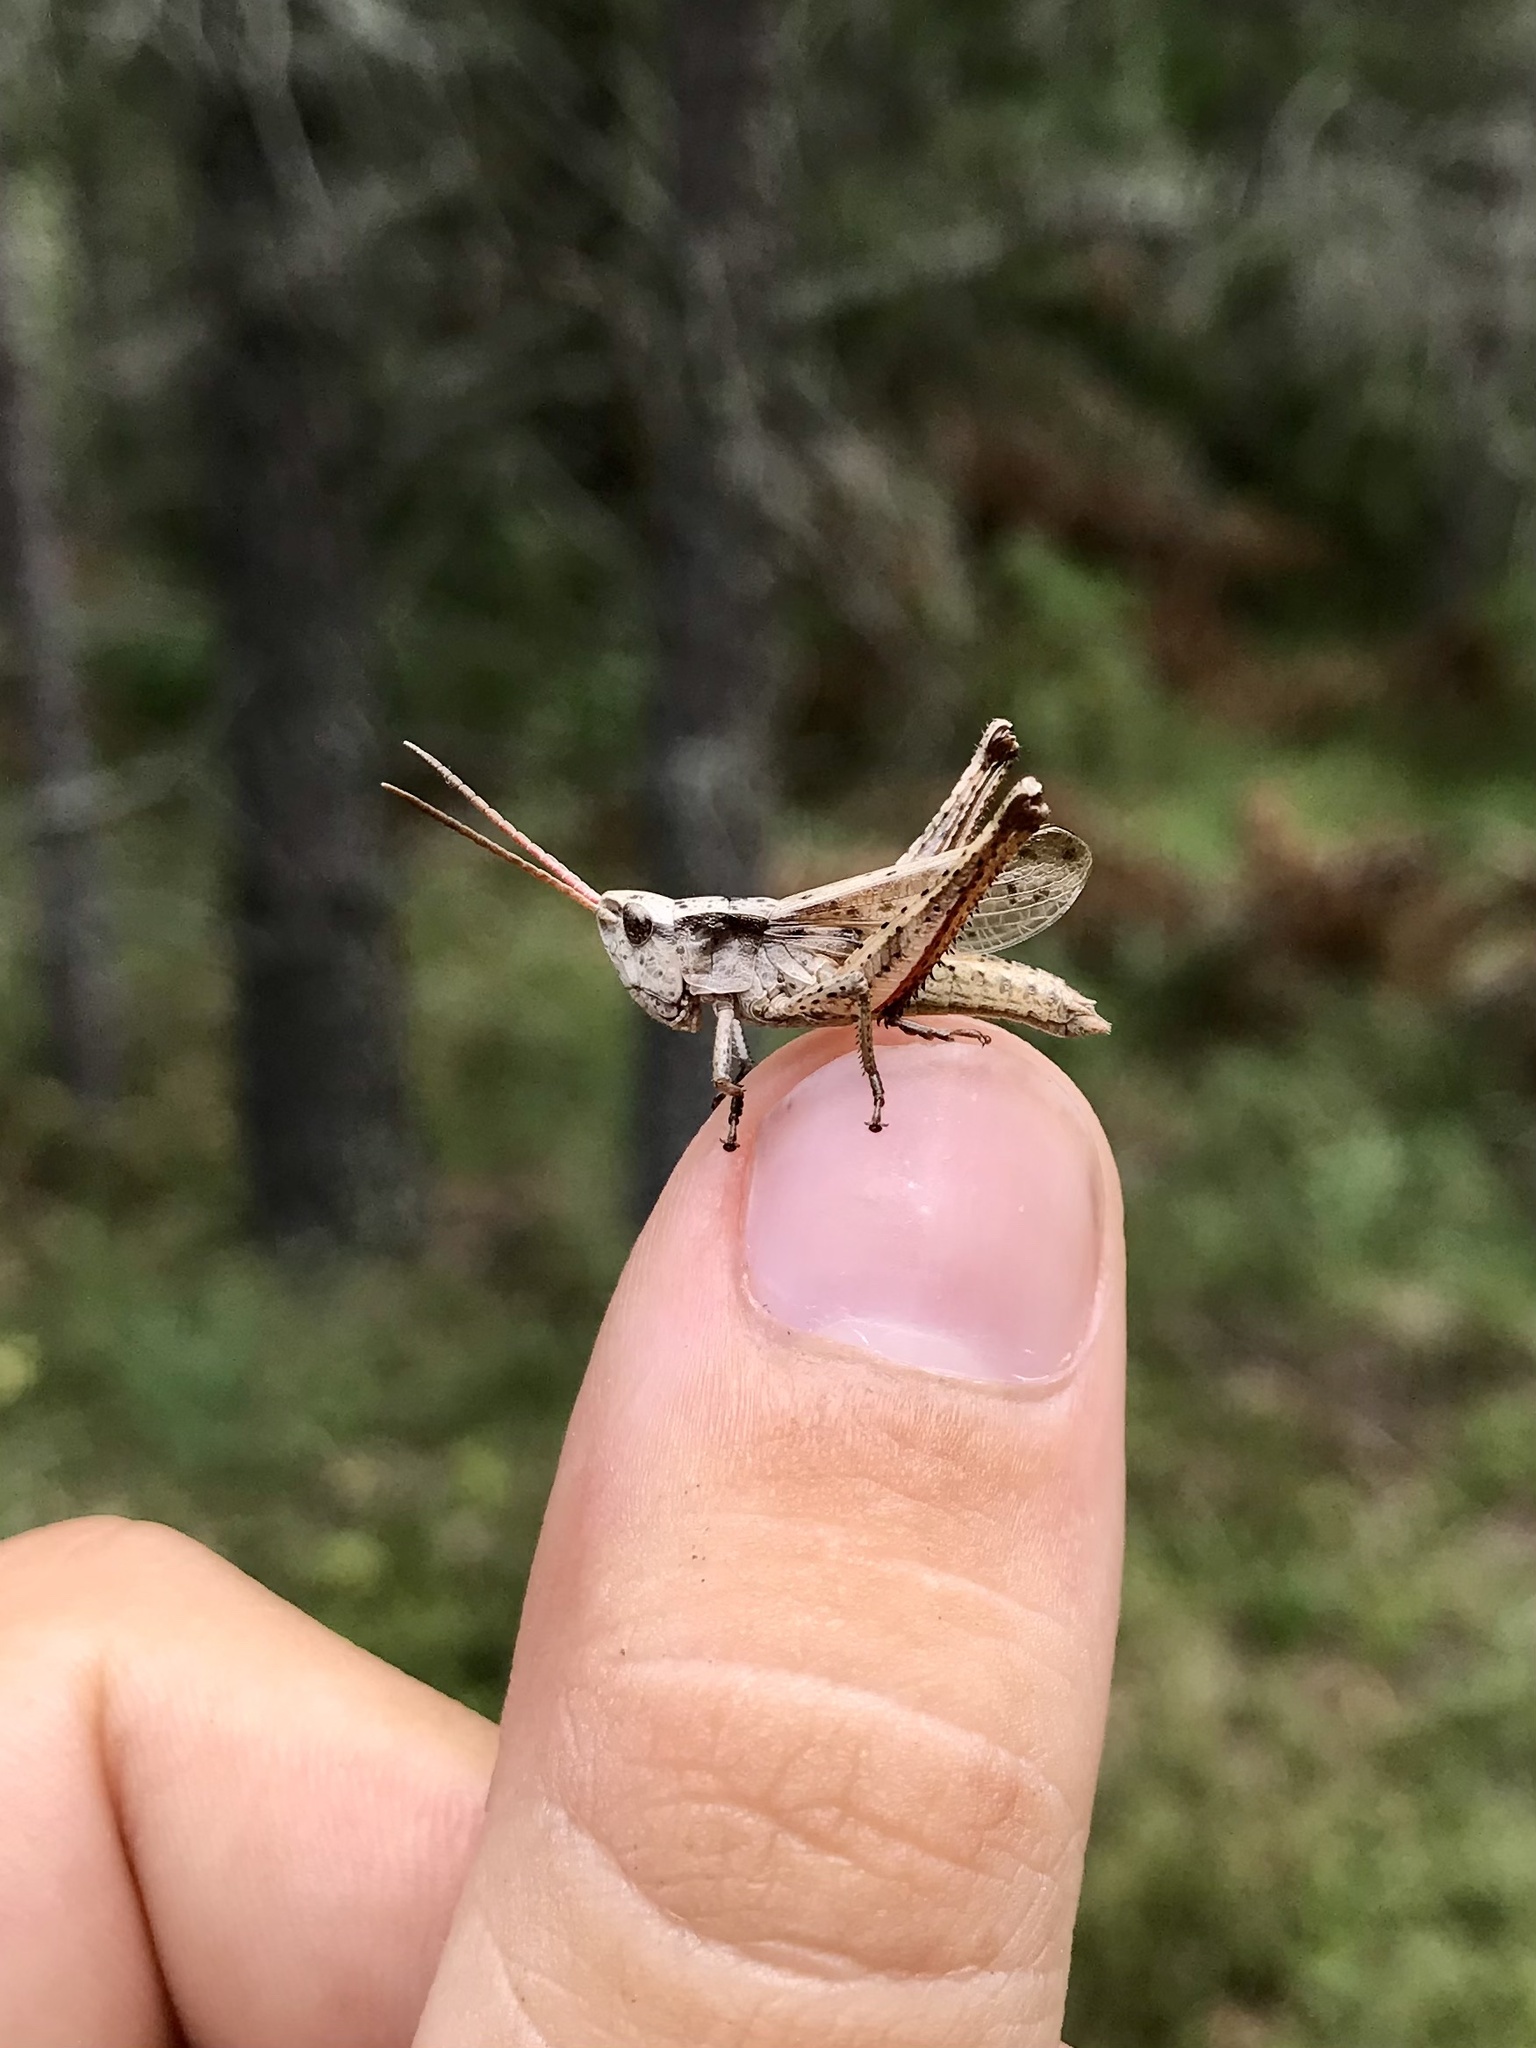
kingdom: Animalia
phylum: Arthropoda
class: Insecta
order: Orthoptera
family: Acrididae
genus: Chloealtis
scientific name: Chloealtis abdominalis
